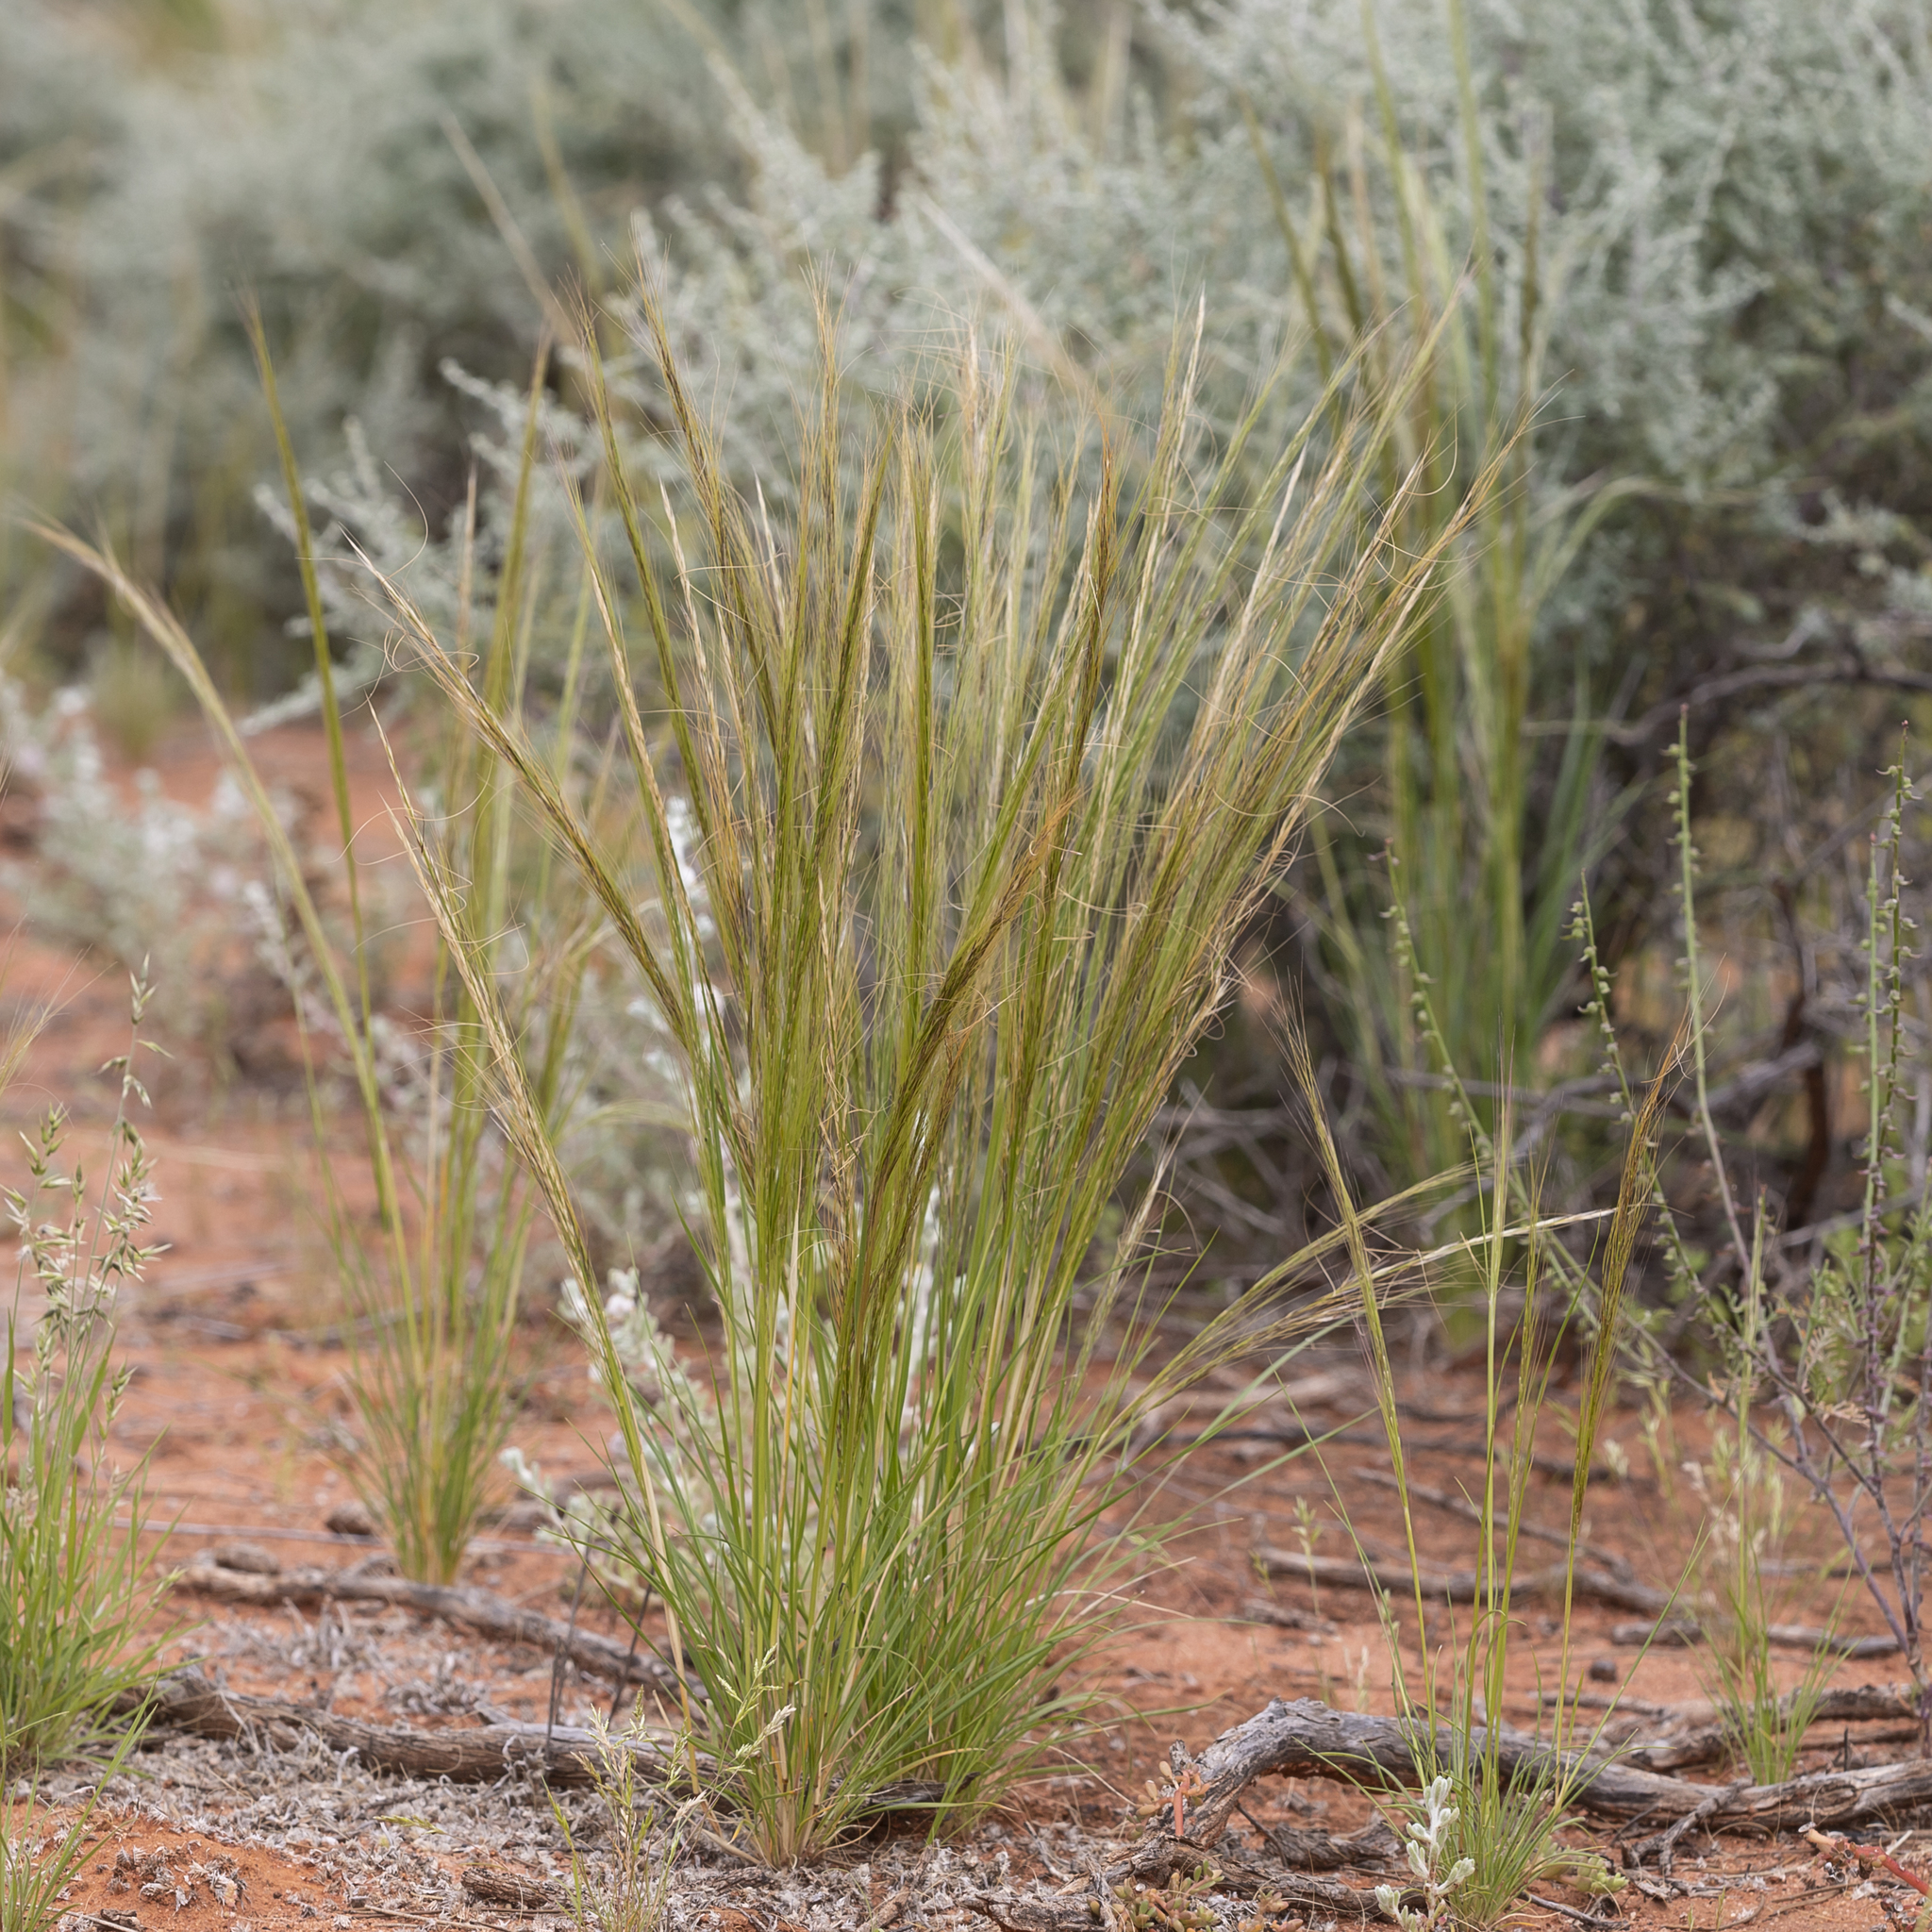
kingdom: Plantae
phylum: Tracheophyta
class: Liliopsida
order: Poales
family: Poaceae
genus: Austrostipa
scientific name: Austrostipa nitida
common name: Balcarra grass
